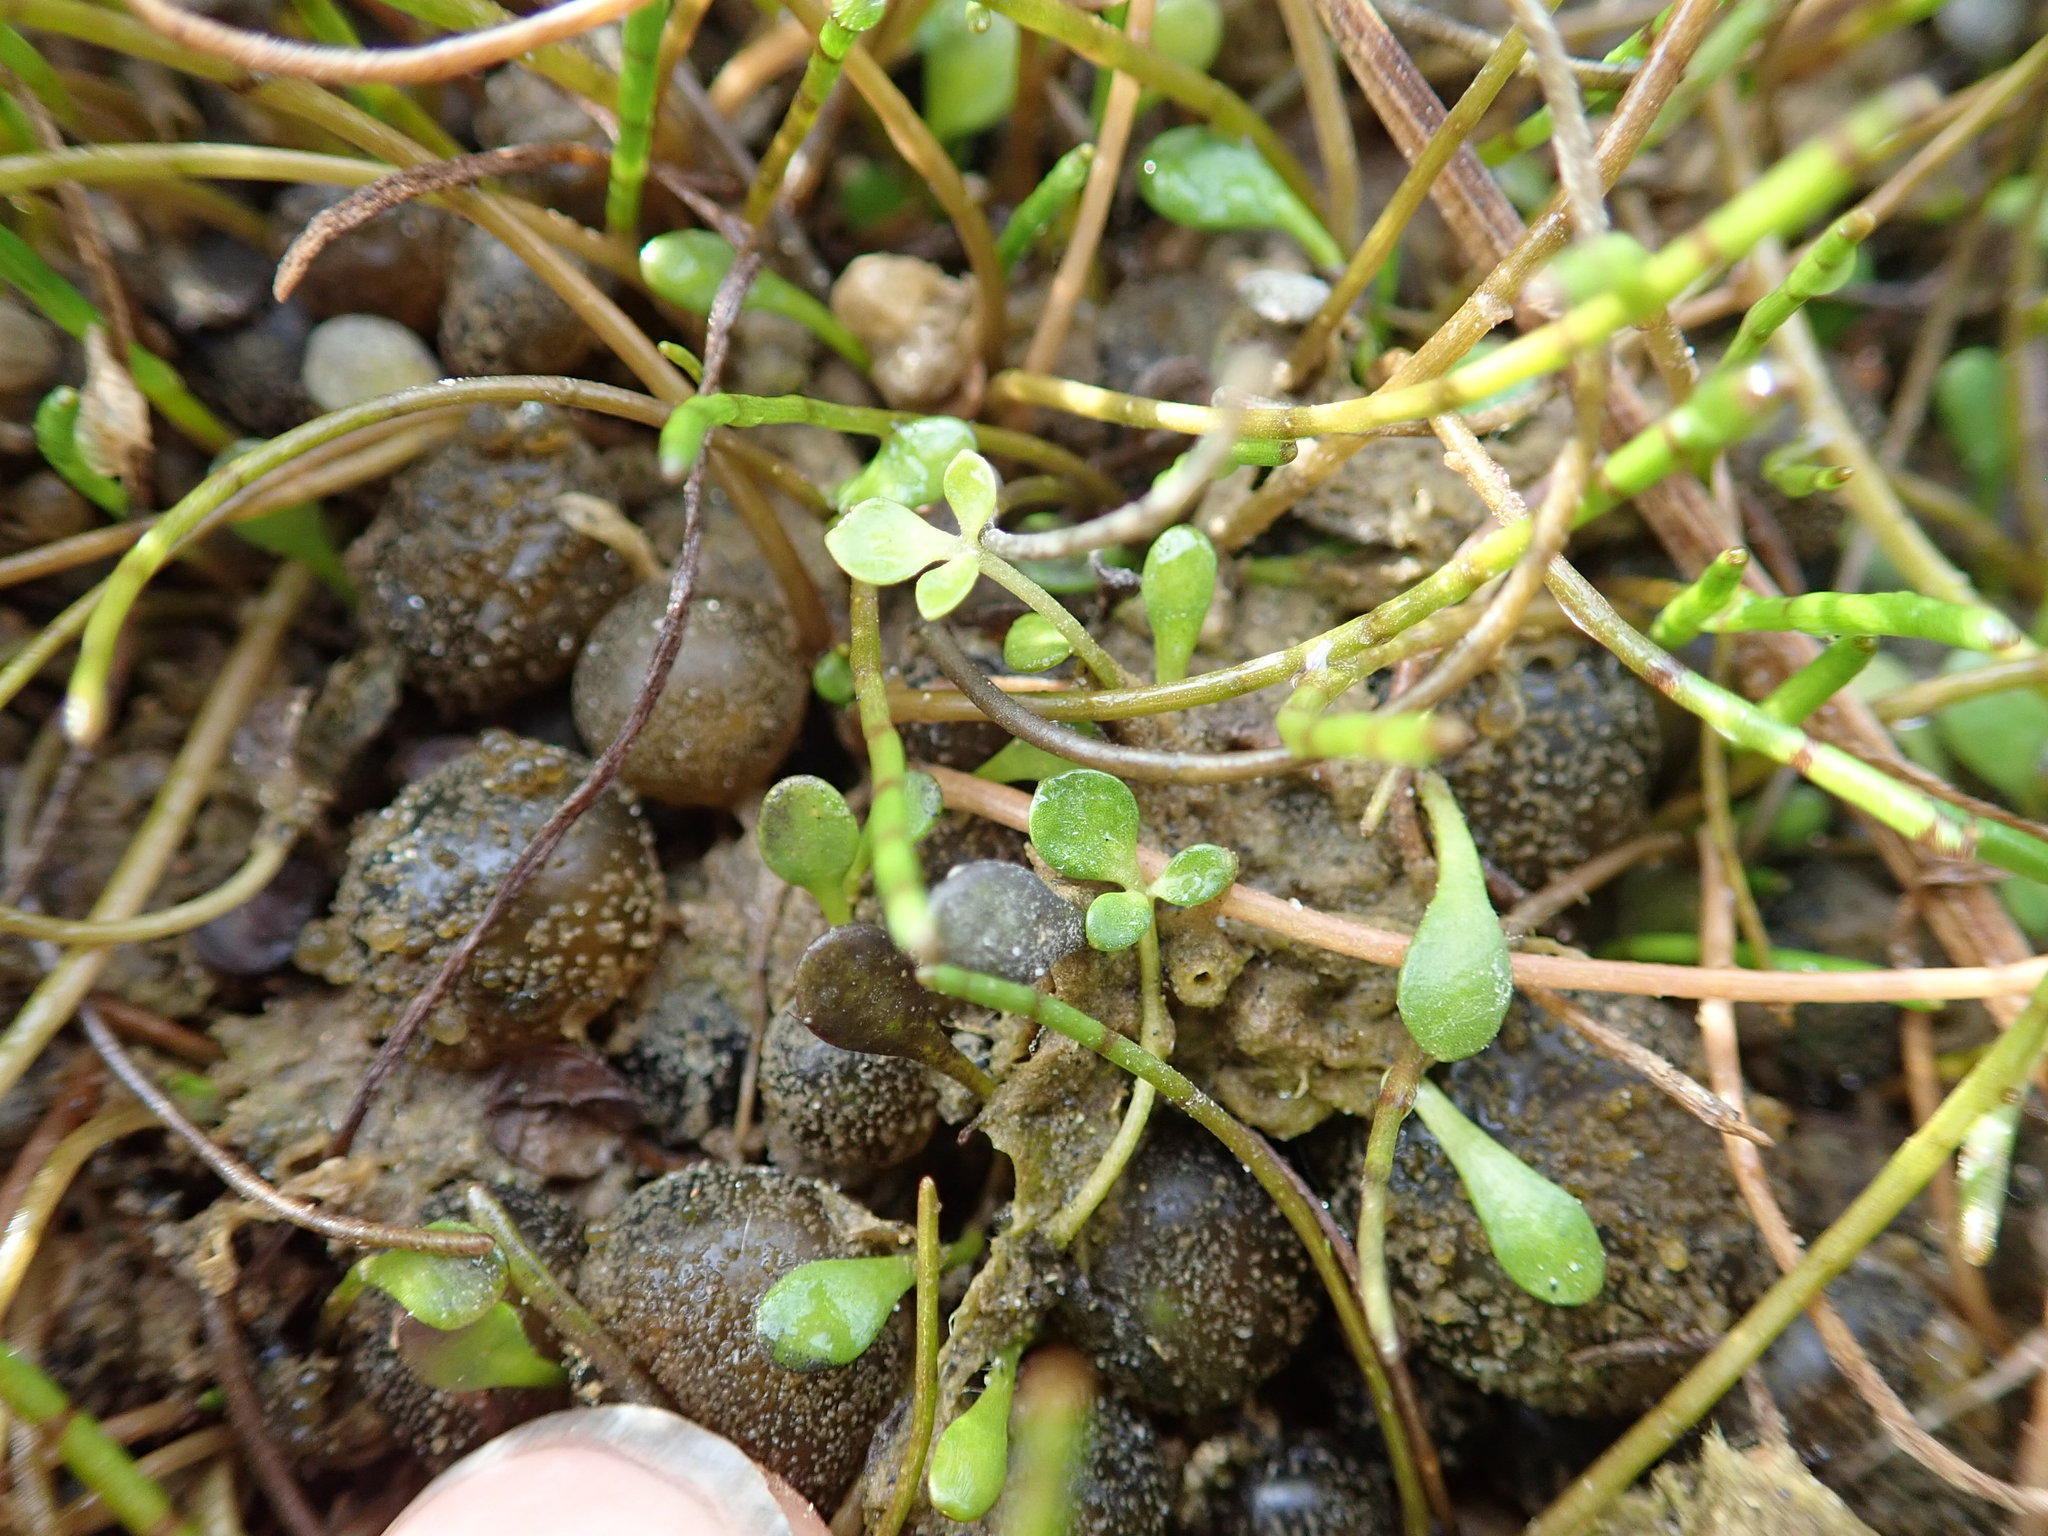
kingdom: Plantae
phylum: Tracheophyta
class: Magnoliopsida
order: Ranunculales
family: Ranunculaceae
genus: Ranunculus
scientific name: Ranunculus acaulis
